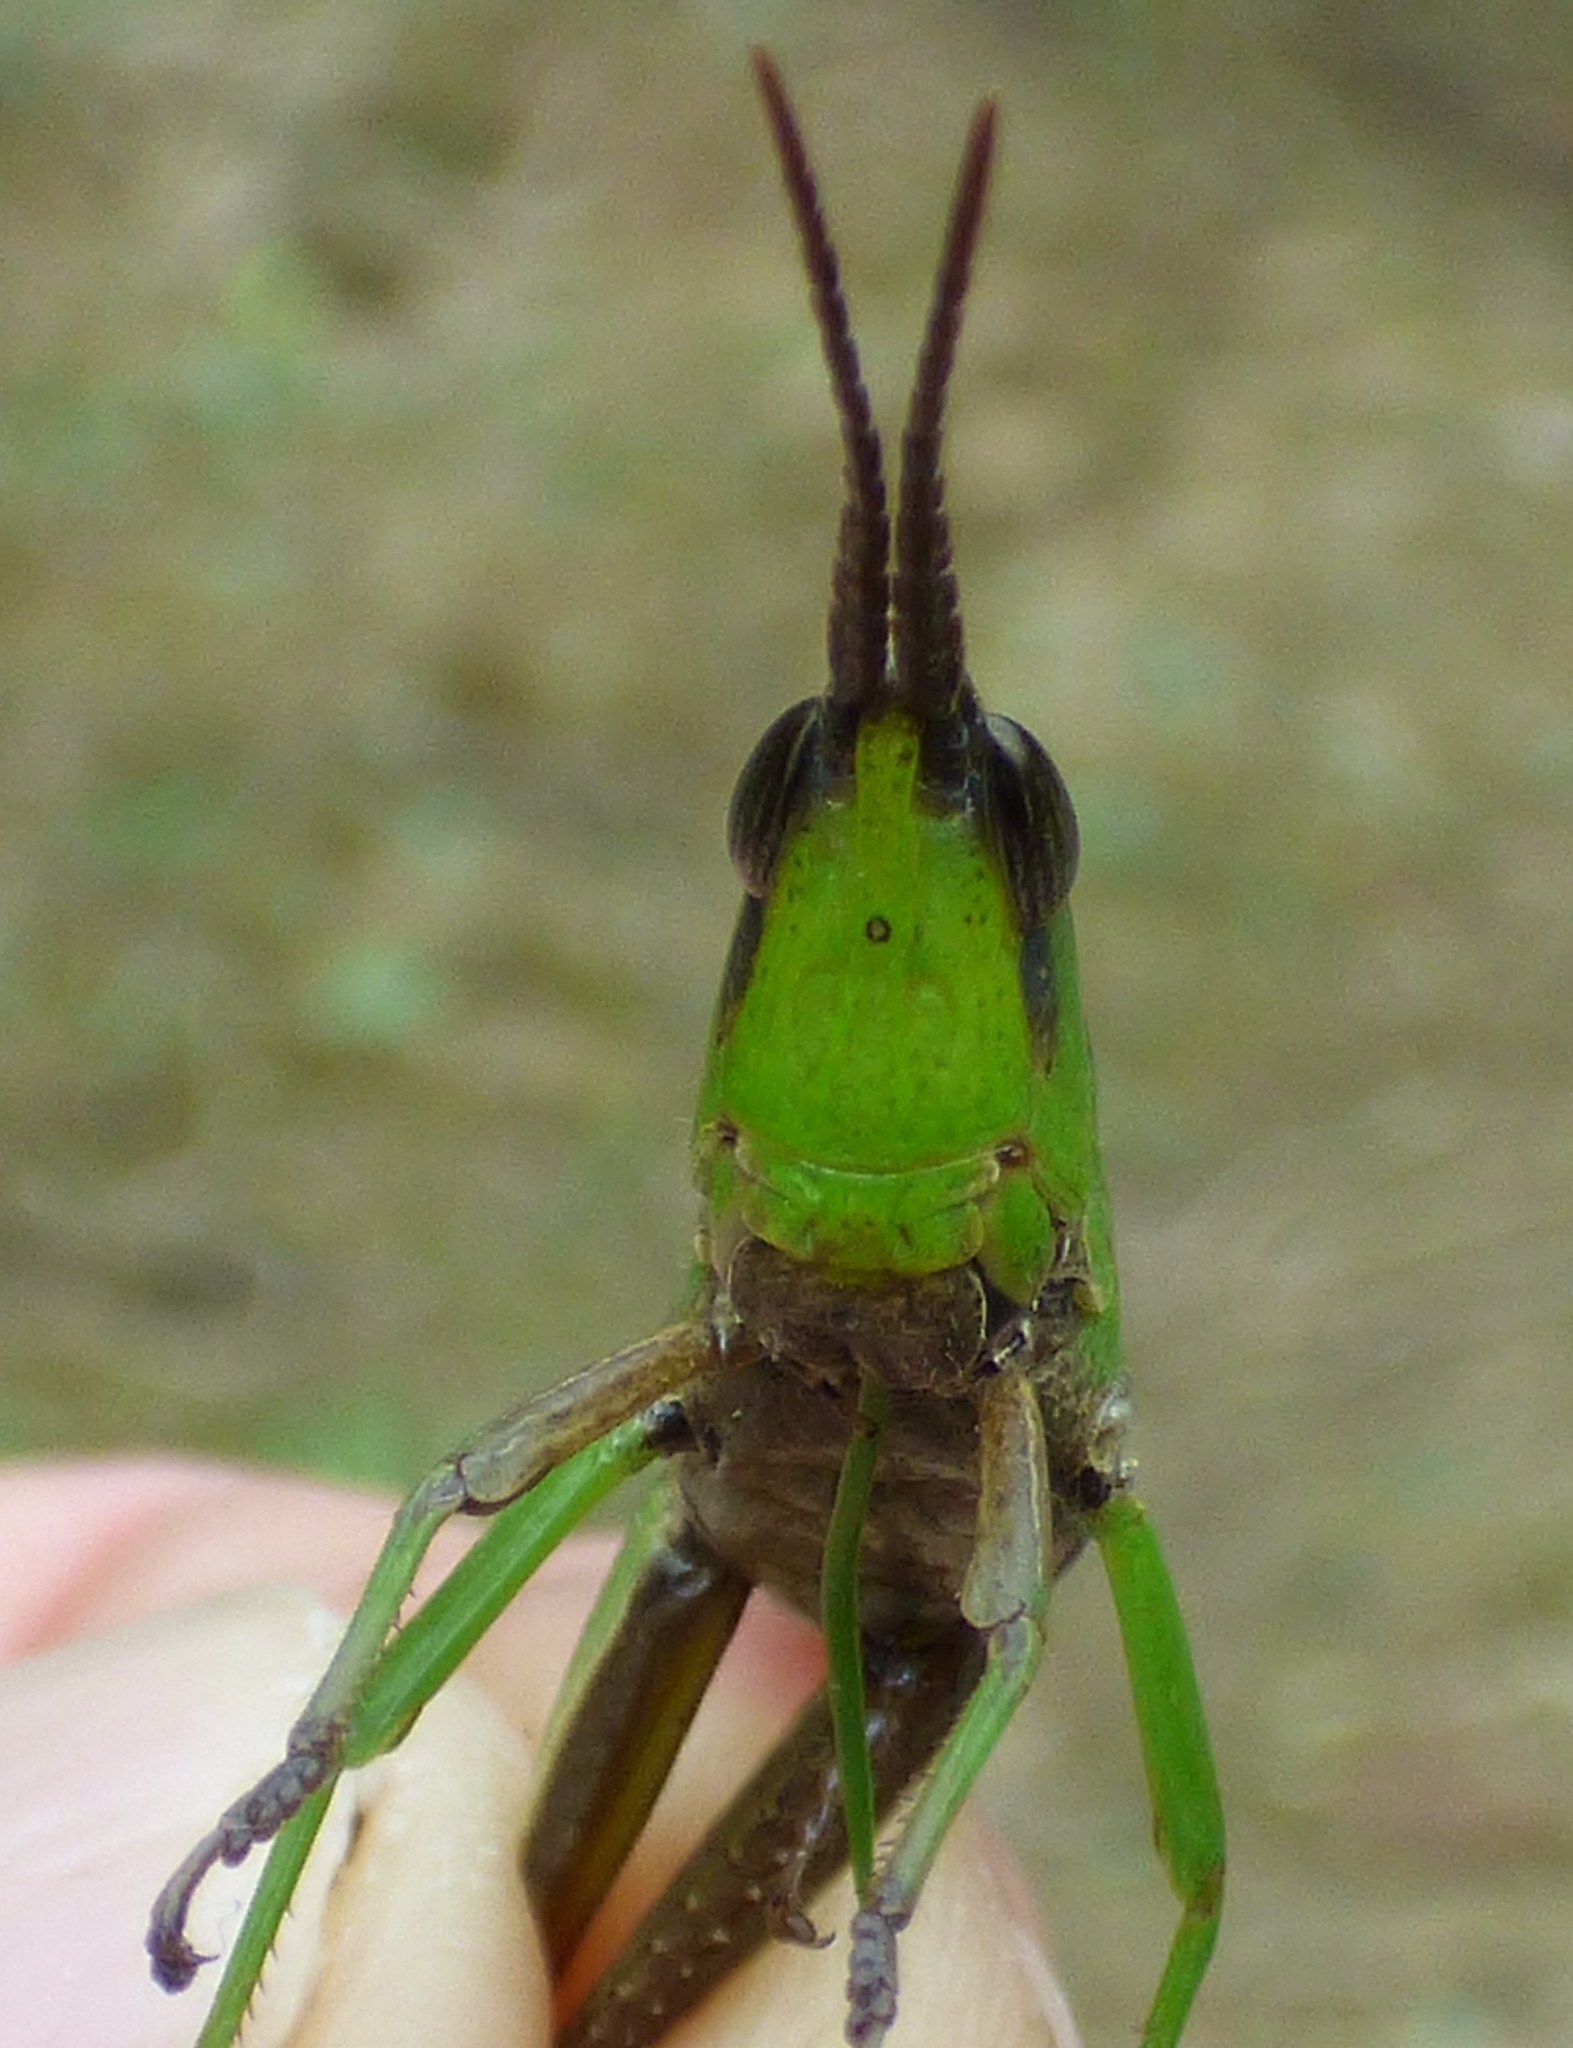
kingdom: Animalia
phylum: Arthropoda
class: Insecta
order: Orthoptera
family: Acrididae
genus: Metaleptea
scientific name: Metaleptea brevicornis
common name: Clipped-wing grasshopper
